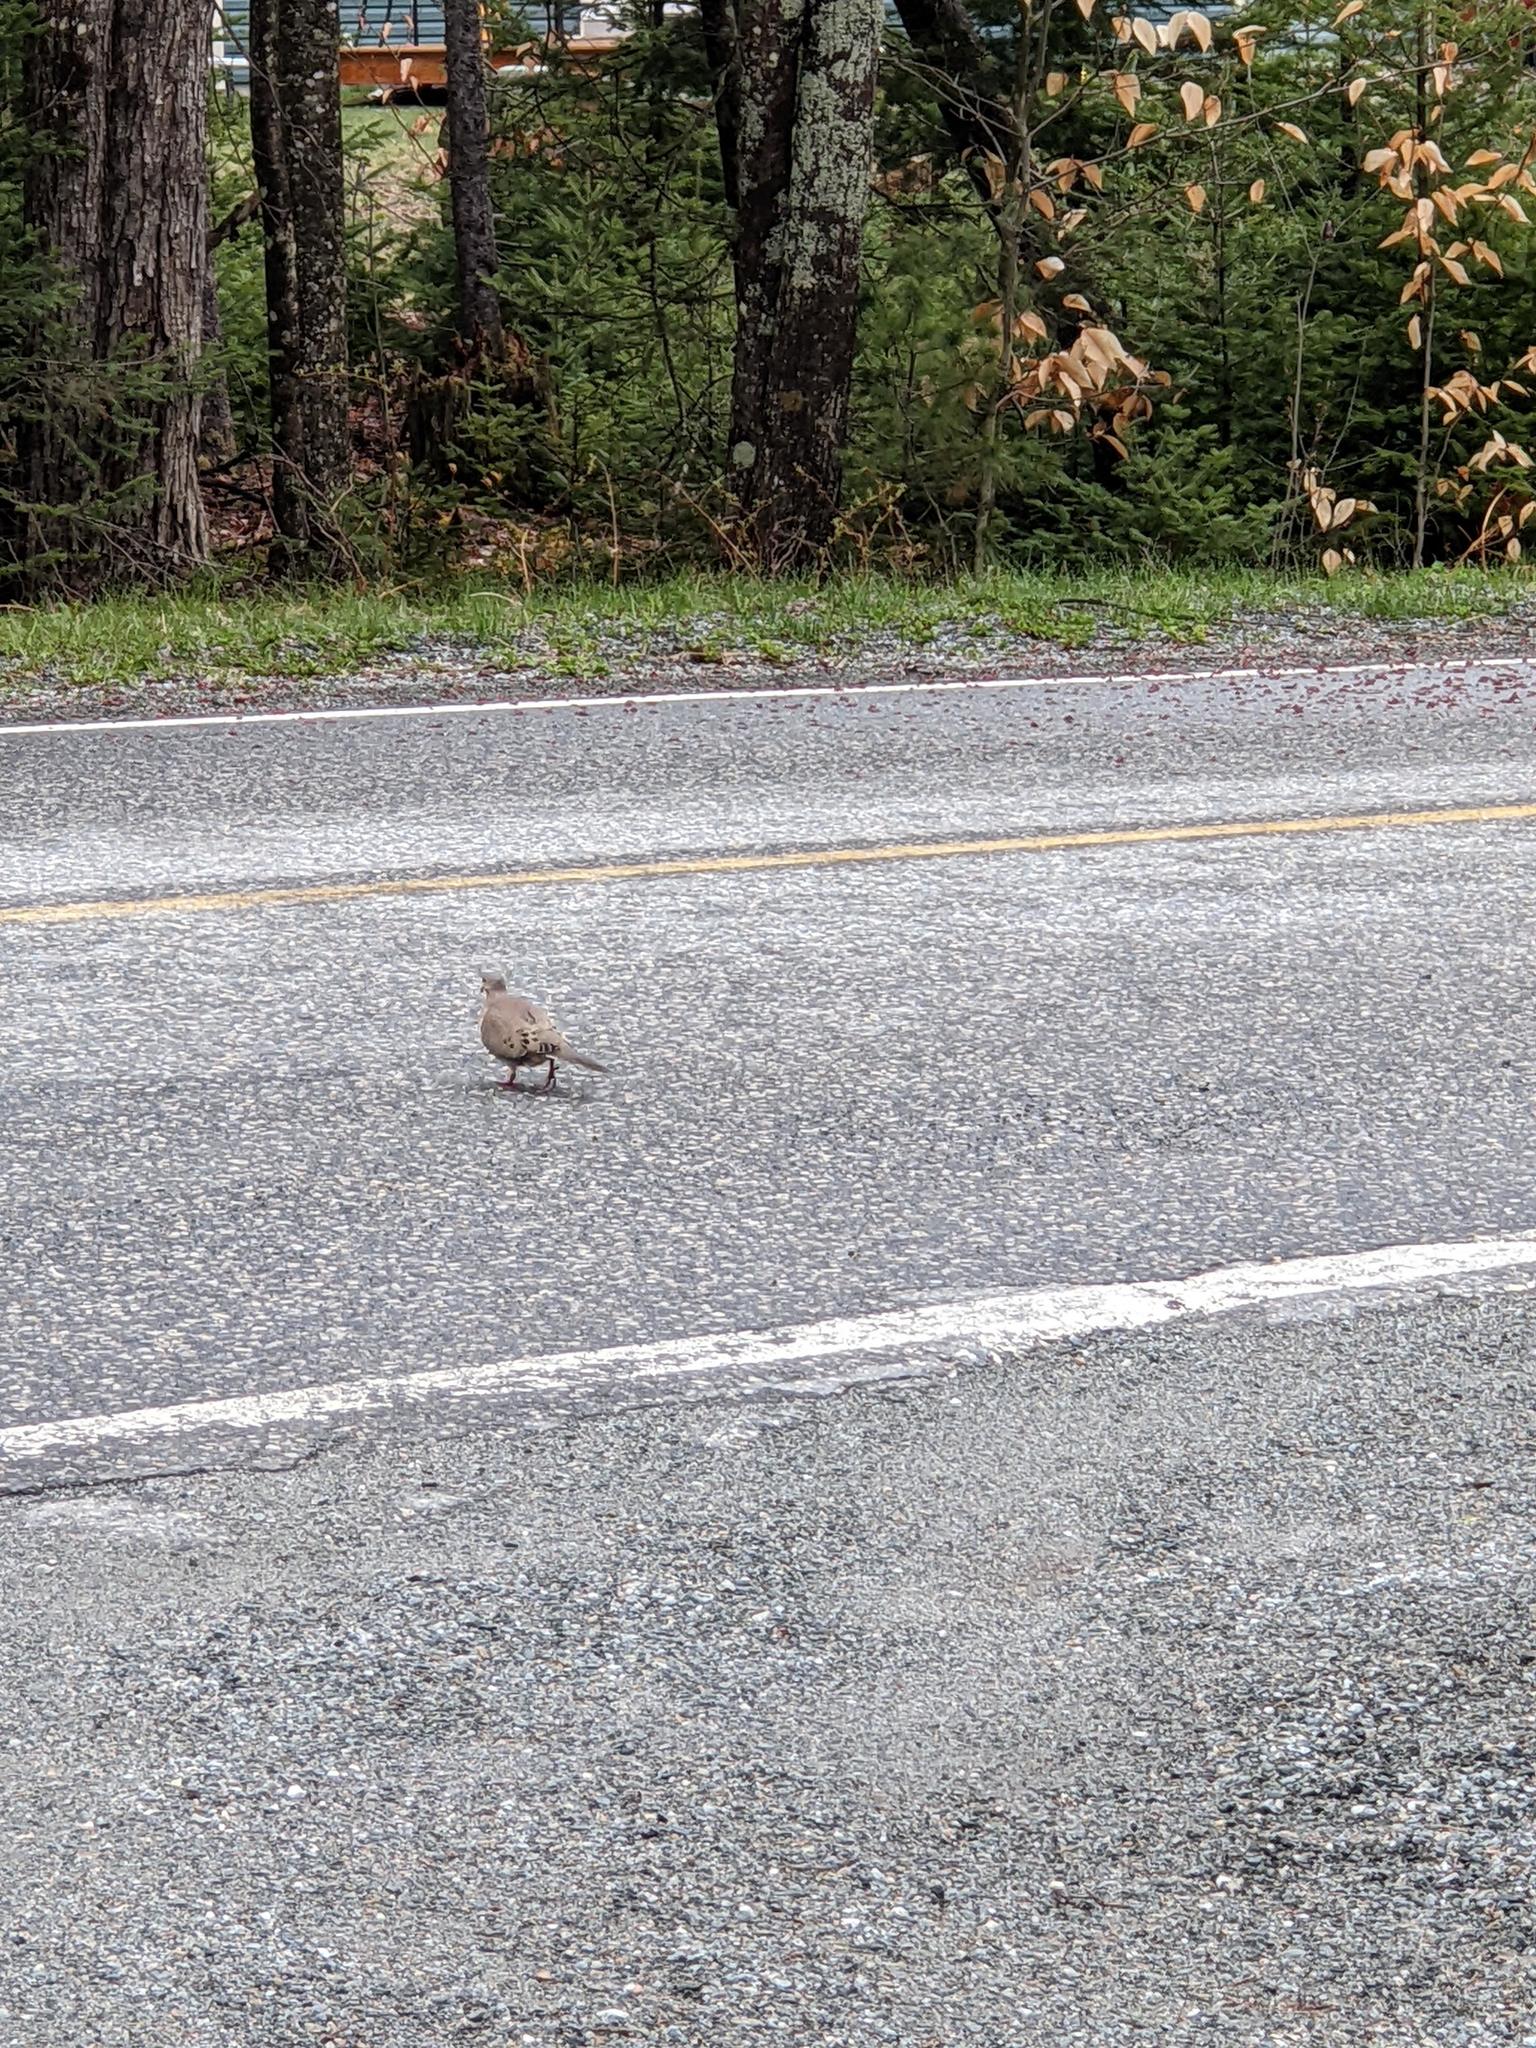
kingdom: Animalia
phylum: Chordata
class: Aves
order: Columbiformes
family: Columbidae
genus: Zenaida
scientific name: Zenaida macroura
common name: Mourning dove
